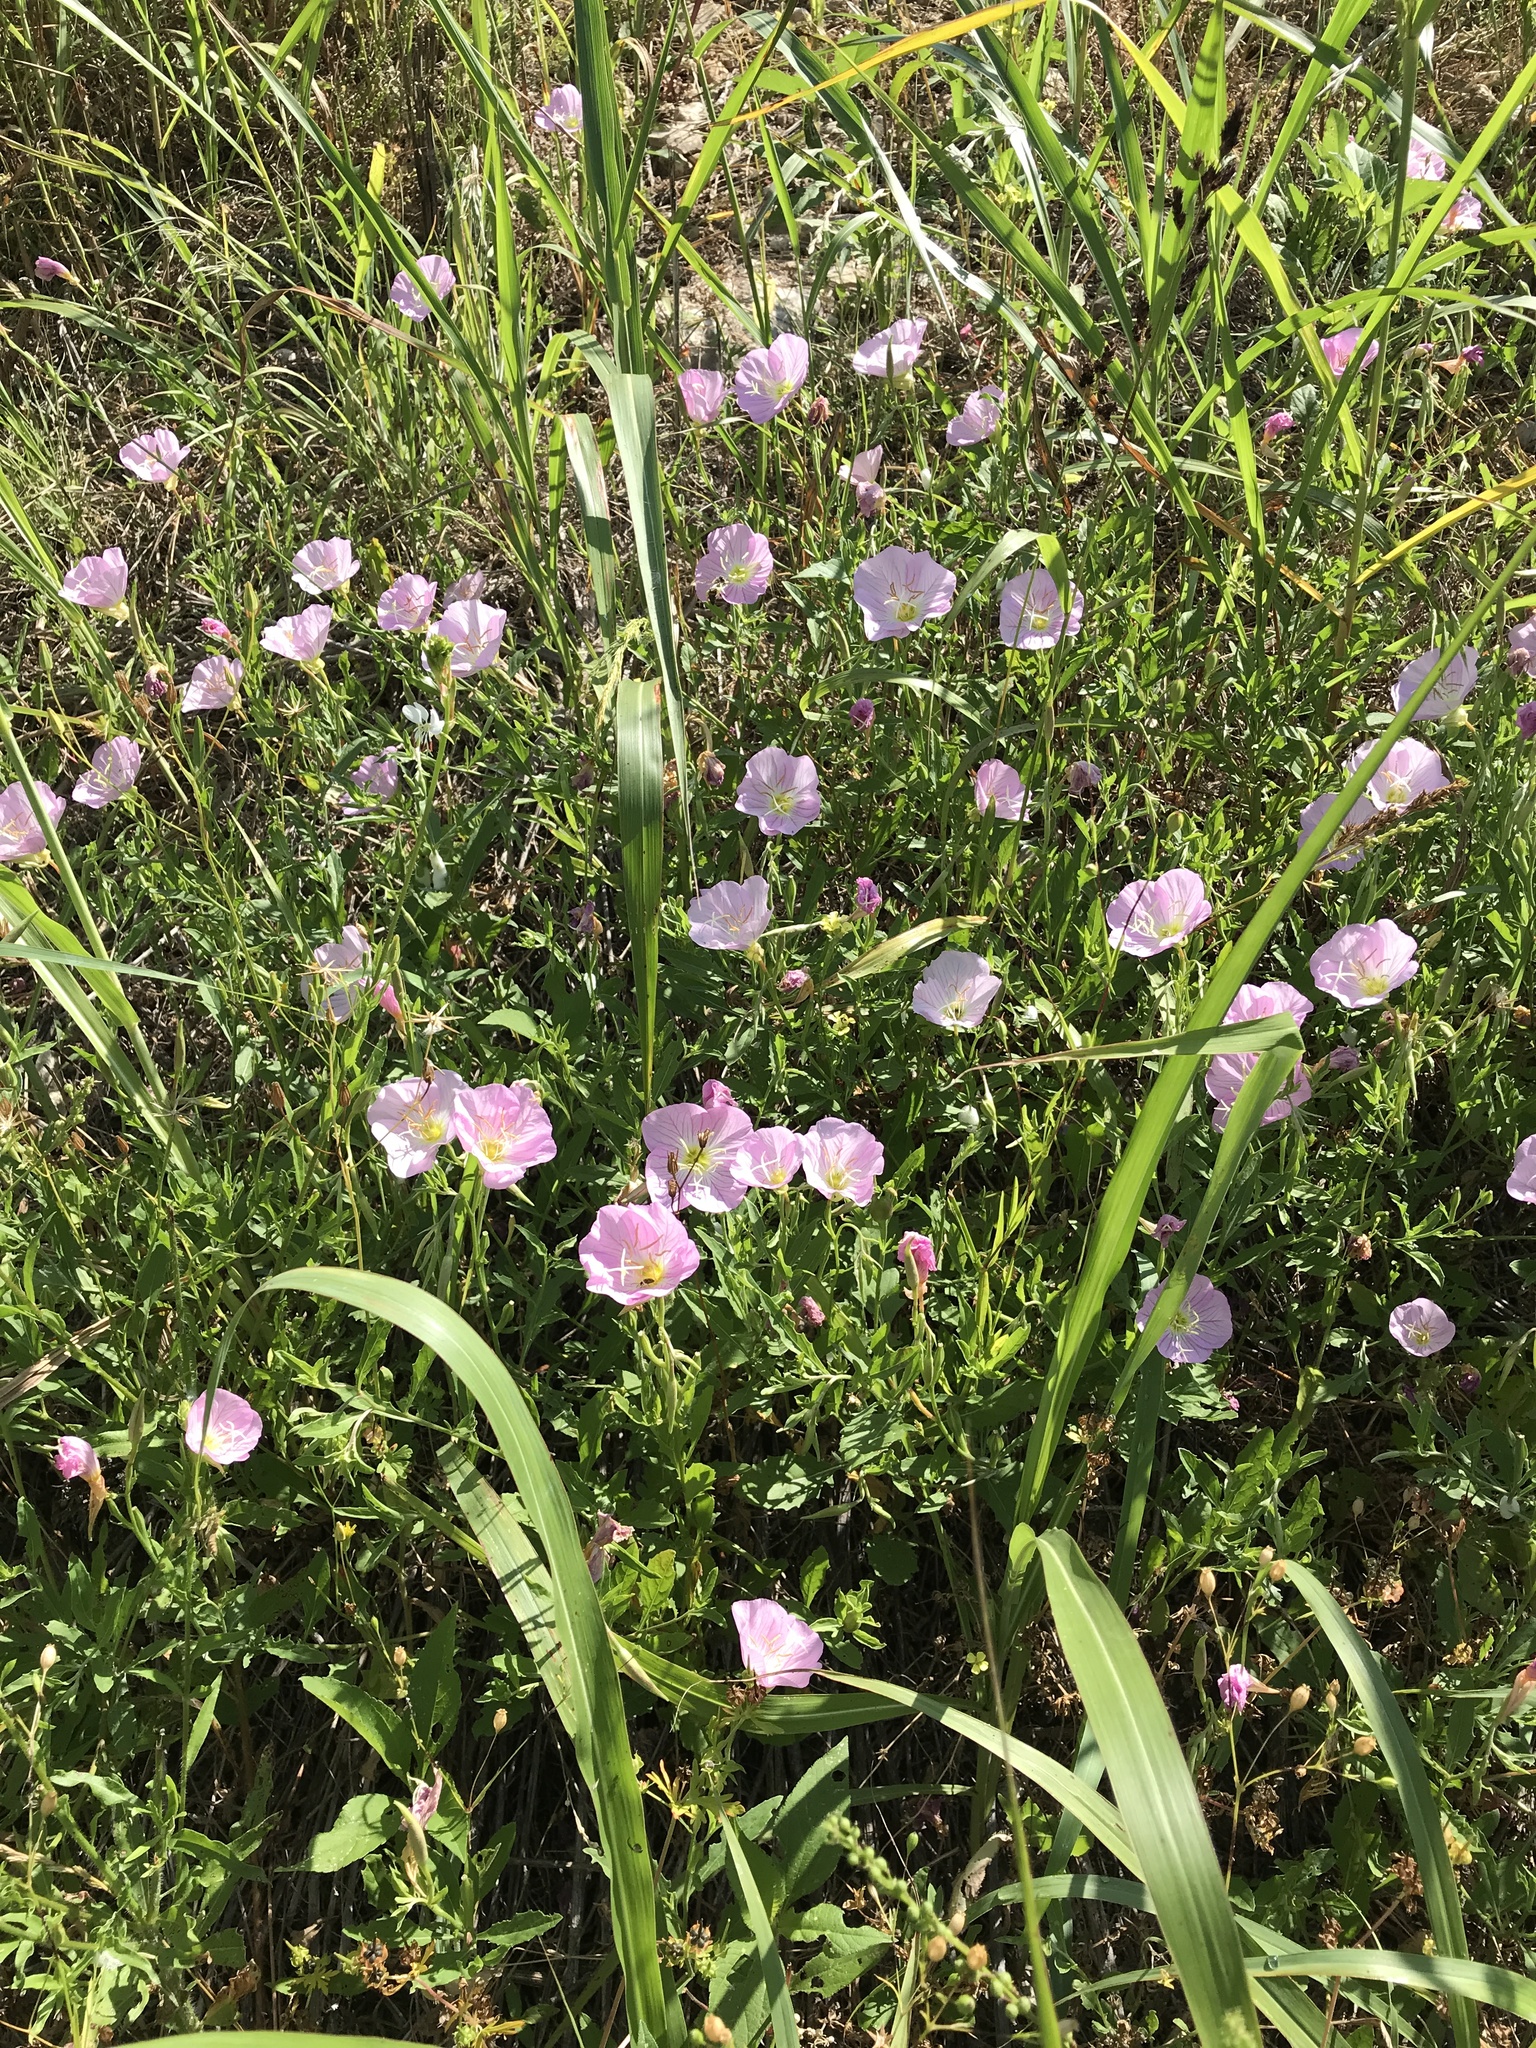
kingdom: Plantae
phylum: Tracheophyta
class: Magnoliopsida
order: Myrtales
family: Onagraceae
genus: Oenothera
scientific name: Oenothera speciosa
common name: White evening-primrose
